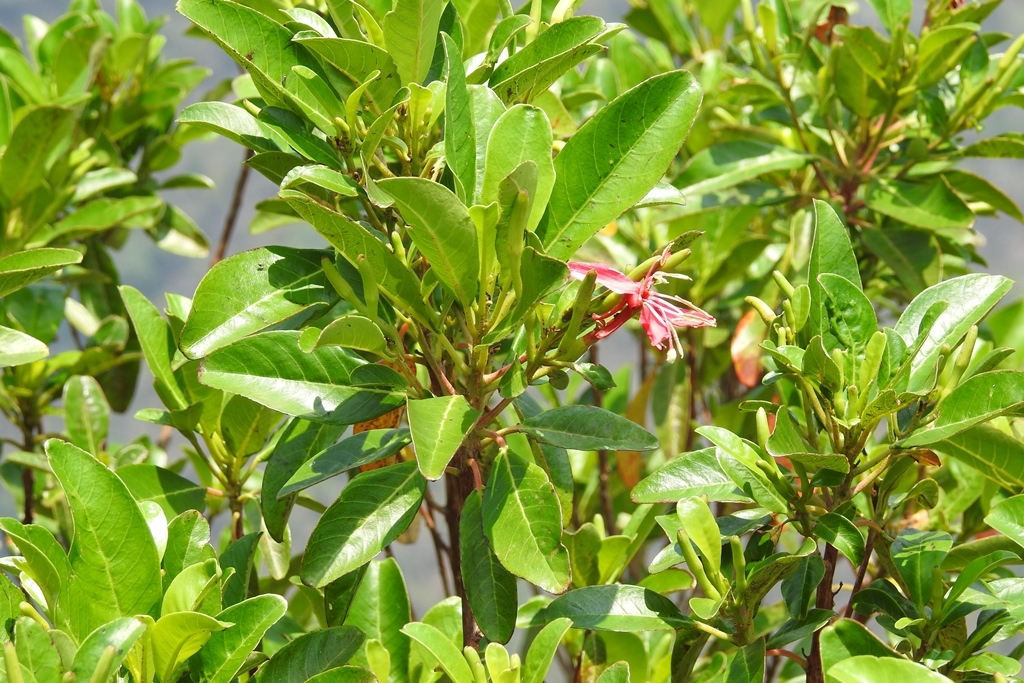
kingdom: Plantae
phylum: Tracheophyta
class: Magnoliopsida
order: Myrtales
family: Onagraceae
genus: Hauya
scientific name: Hauya elegans
